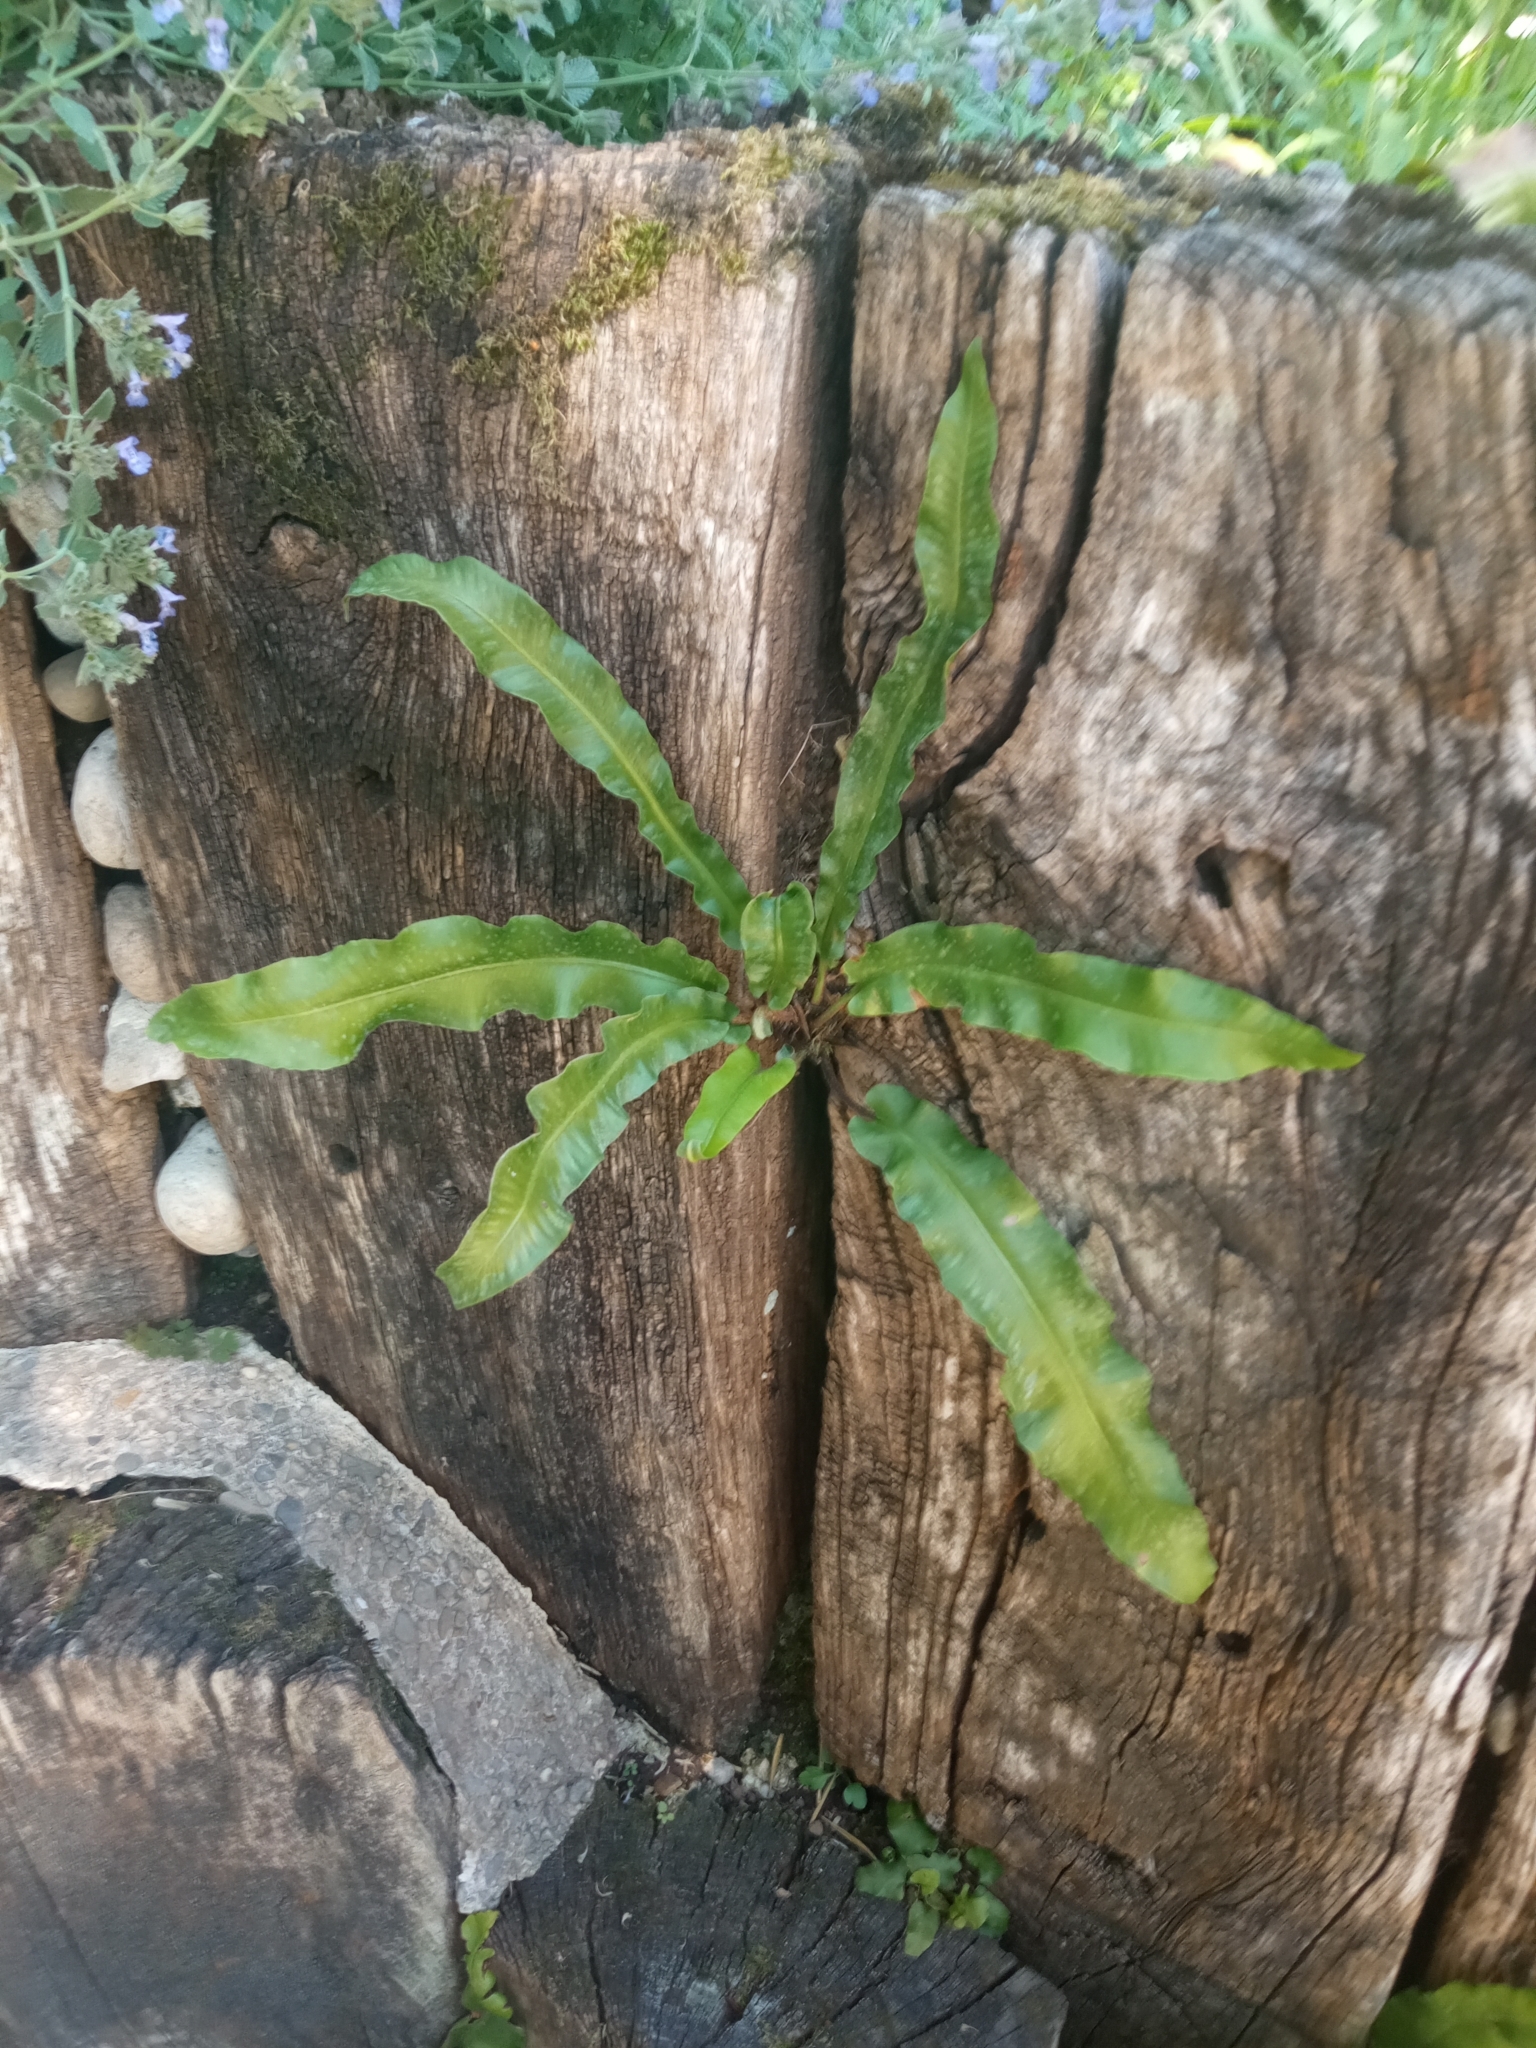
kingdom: Plantae
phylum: Tracheophyta
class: Polypodiopsida
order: Polypodiales
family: Aspleniaceae
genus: Asplenium
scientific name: Asplenium scolopendrium
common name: Hart's-tongue fern
